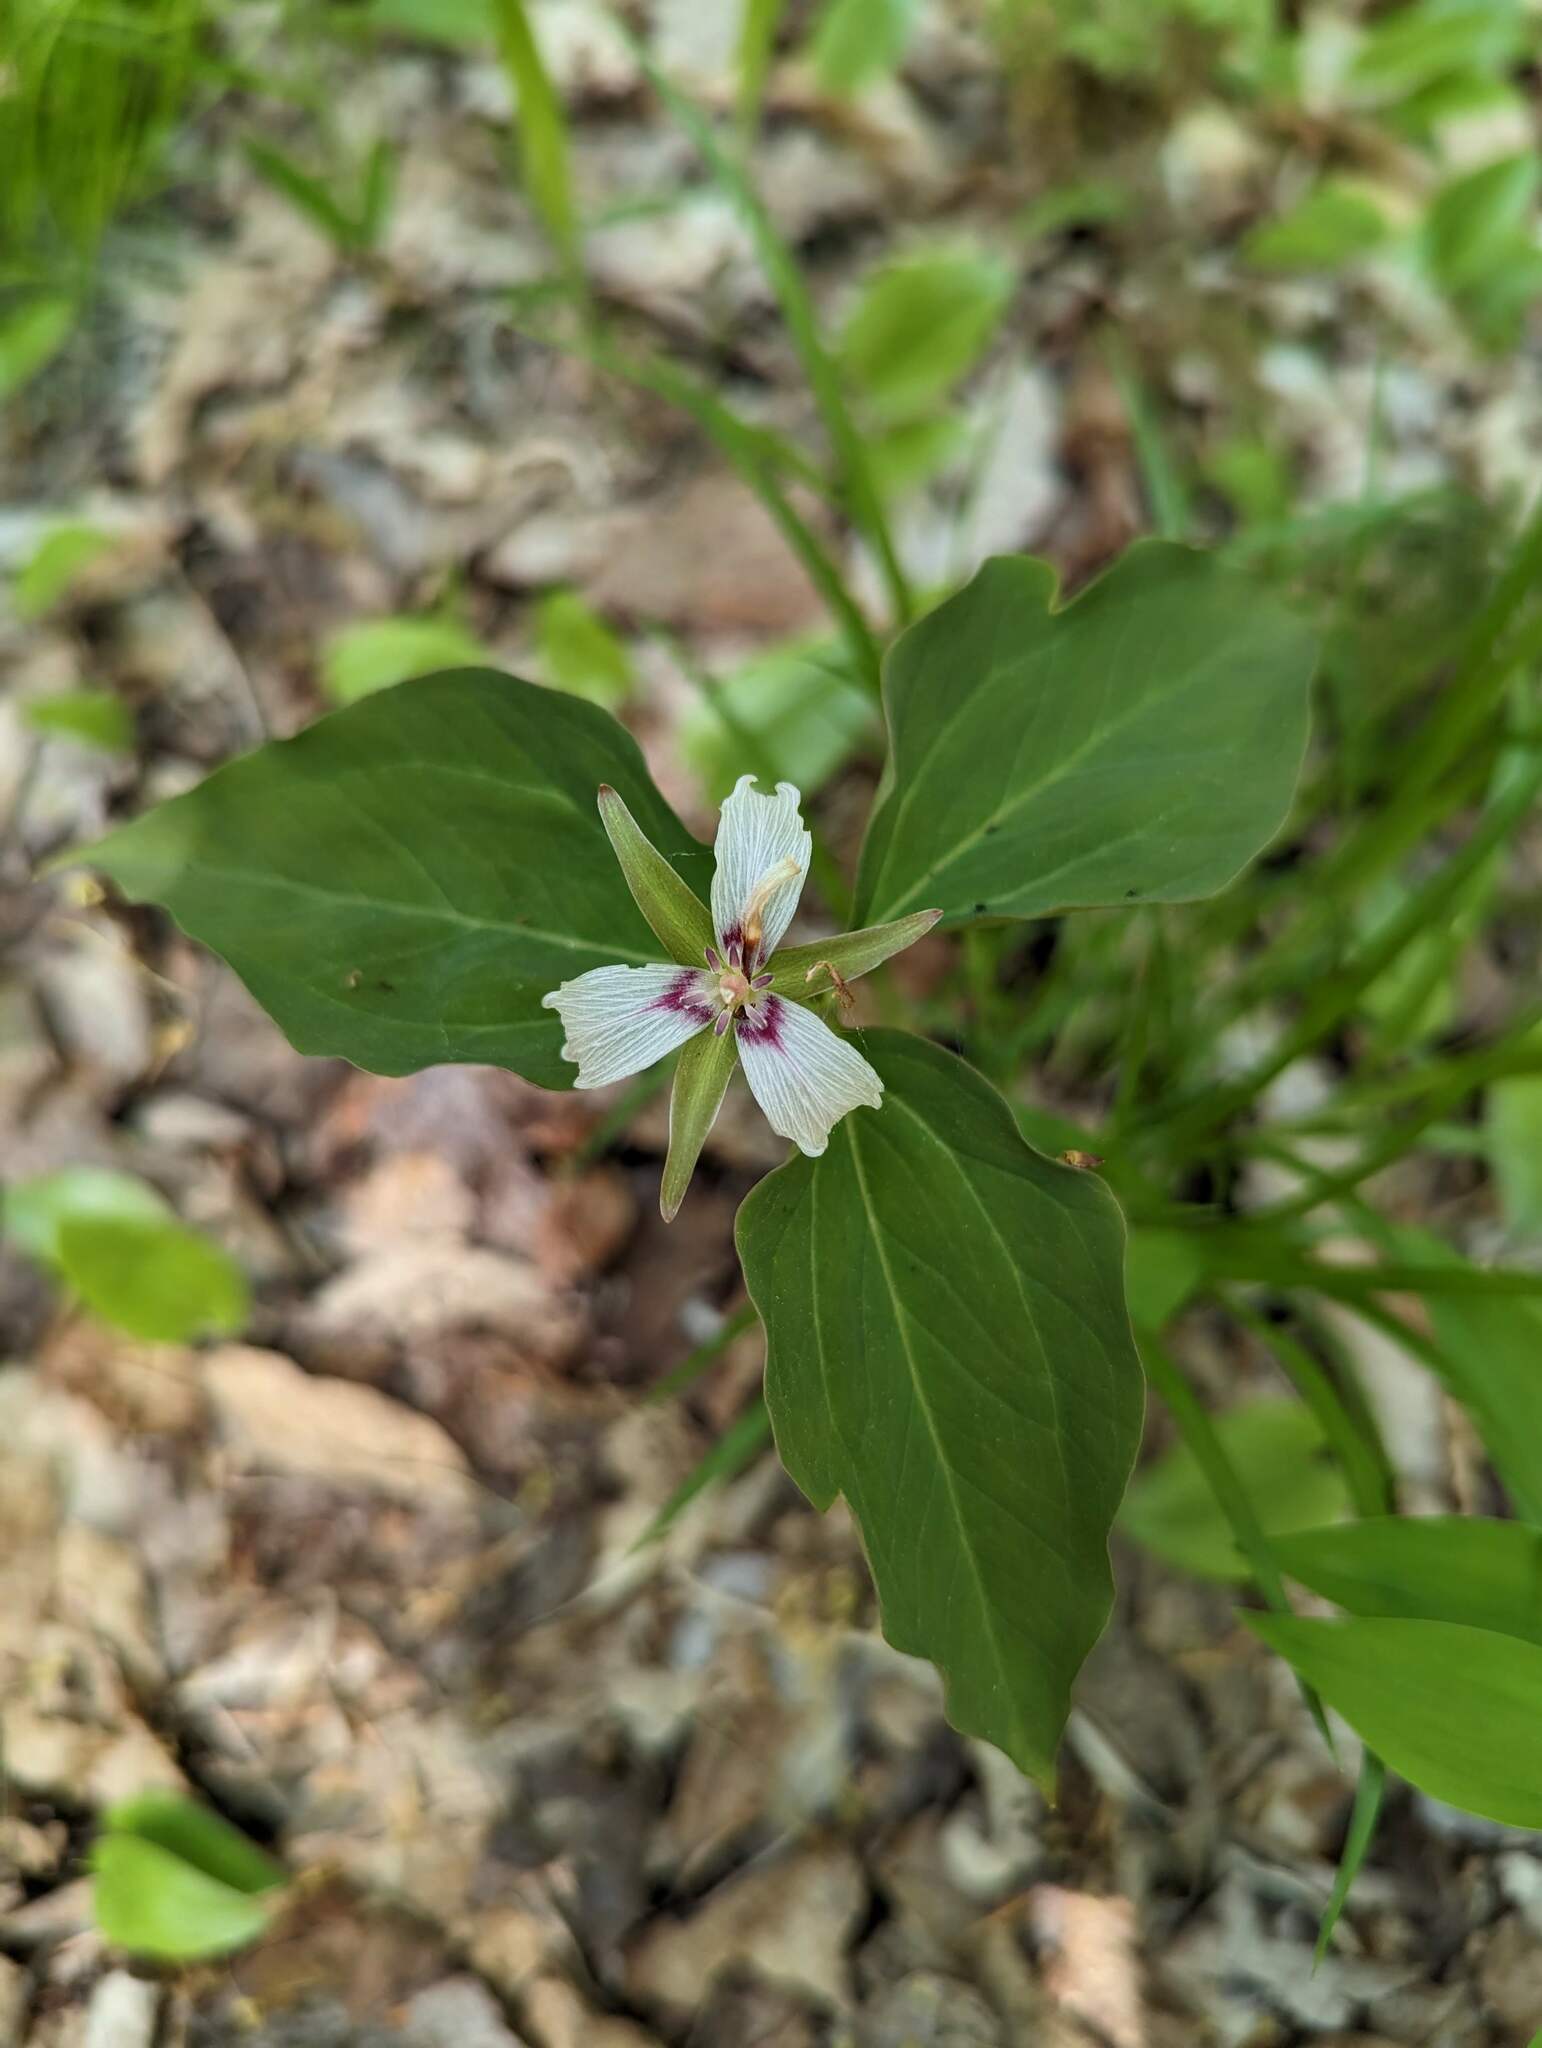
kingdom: Plantae
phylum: Tracheophyta
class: Liliopsida
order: Liliales
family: Melanthiaceae
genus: Trillium
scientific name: Trillium undulatum
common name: Paint trillium
